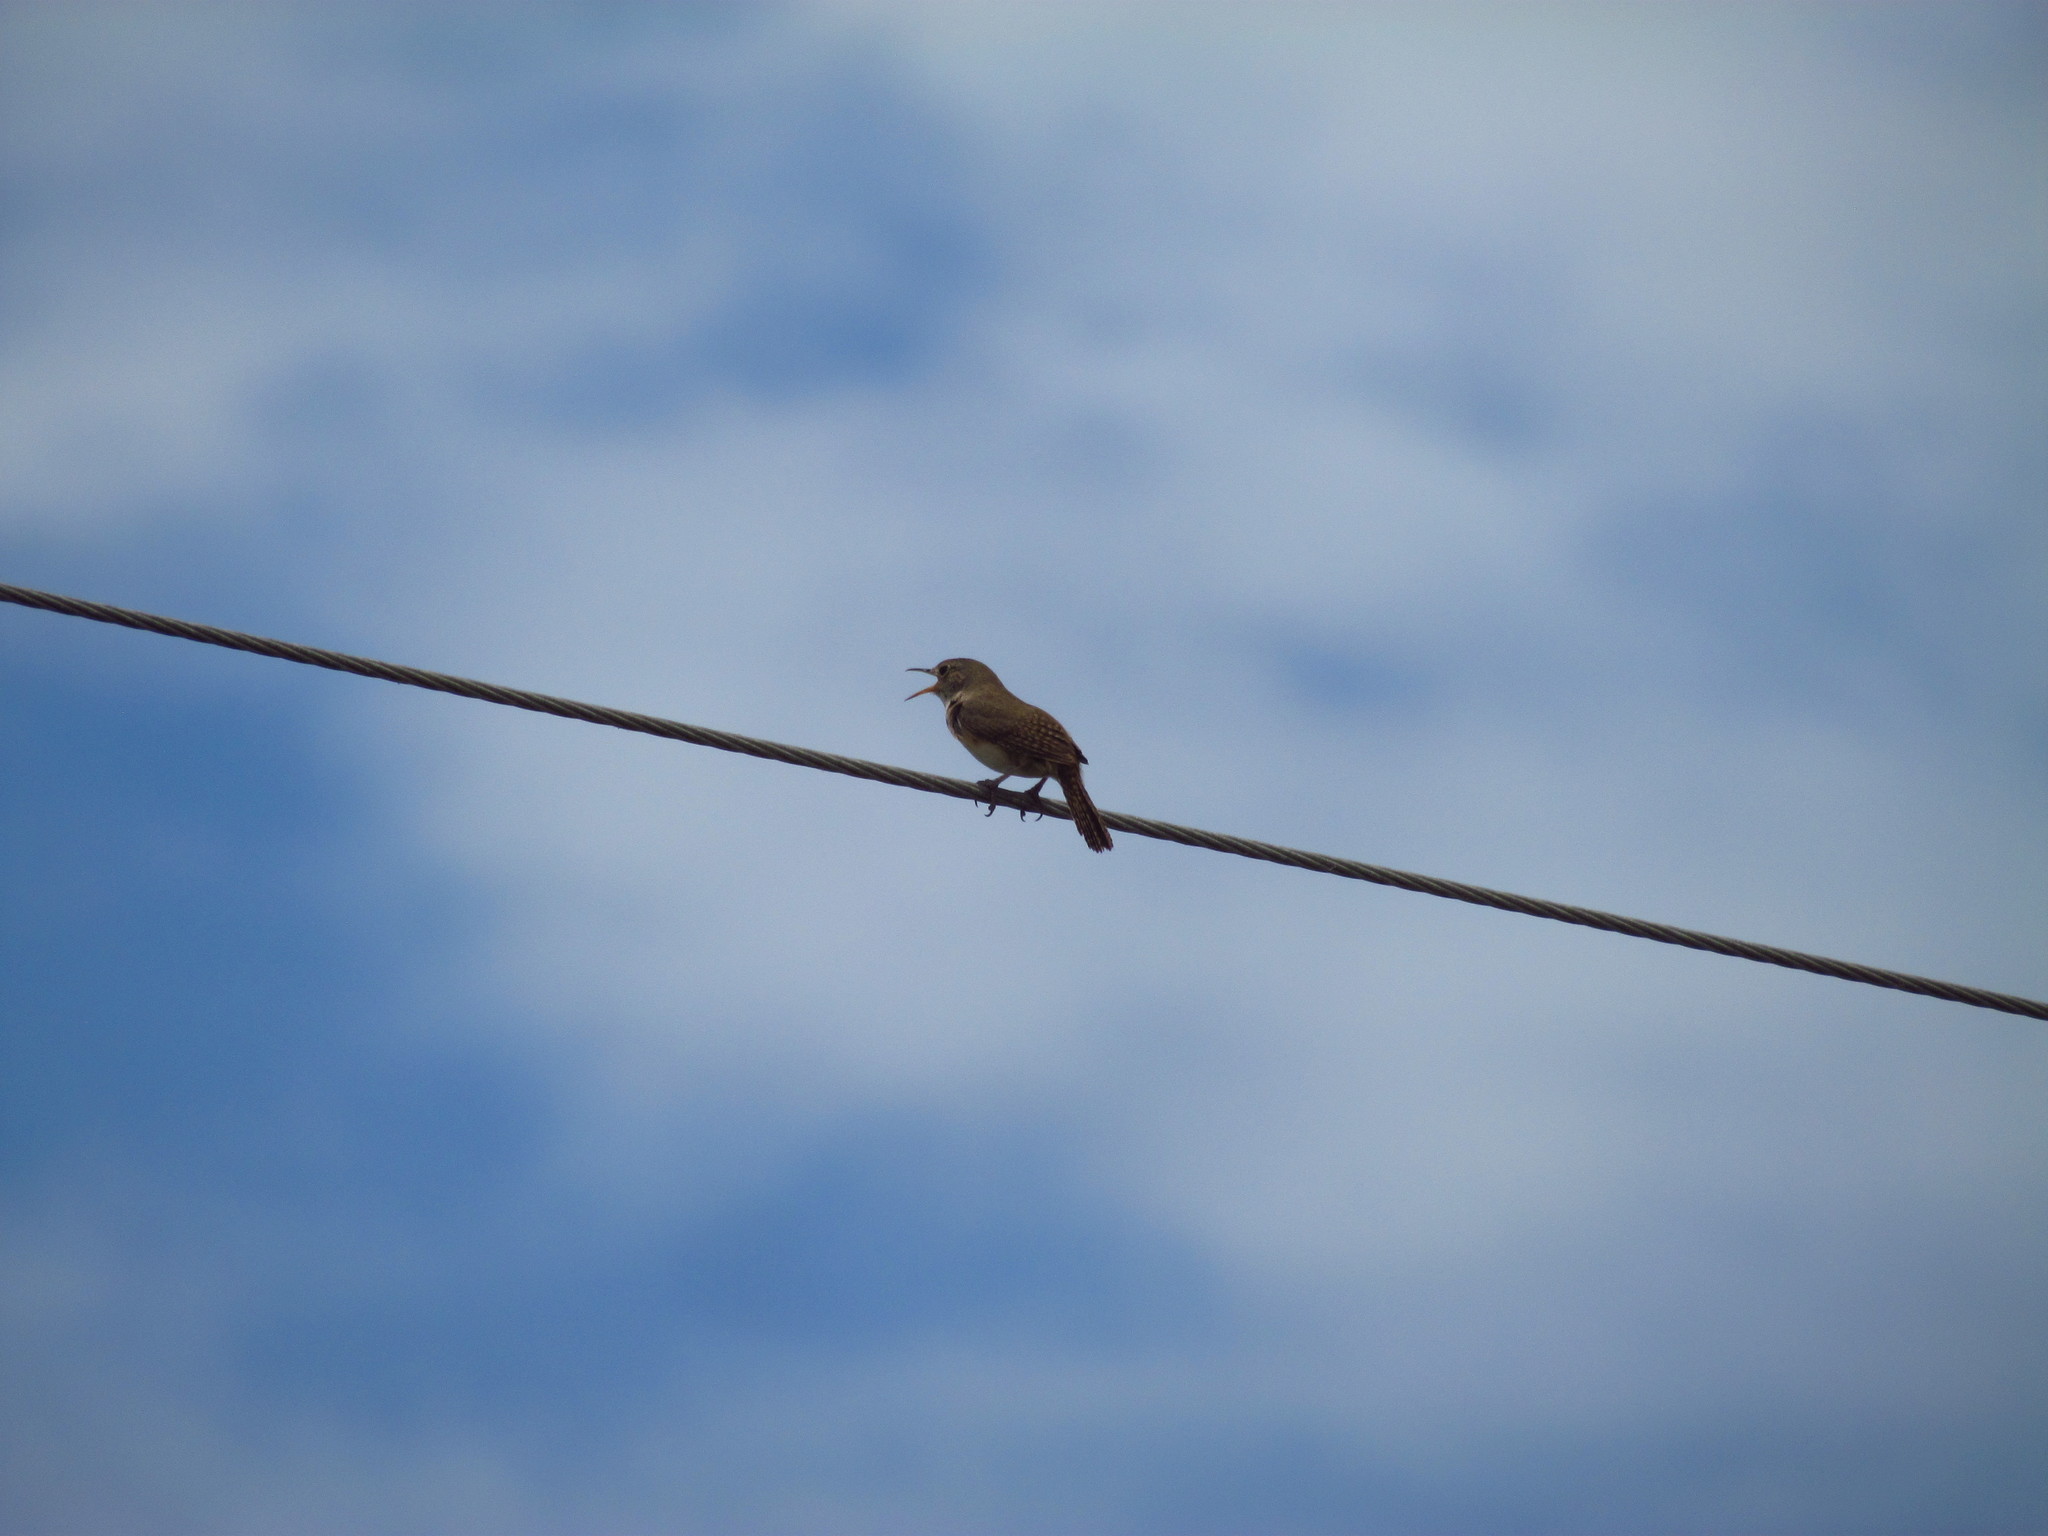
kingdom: Animalia
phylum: Chordata
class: Aves
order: Passeriformes
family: Troglodytidae
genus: Troglodytes
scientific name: Troglodytes aedon
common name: House wren
